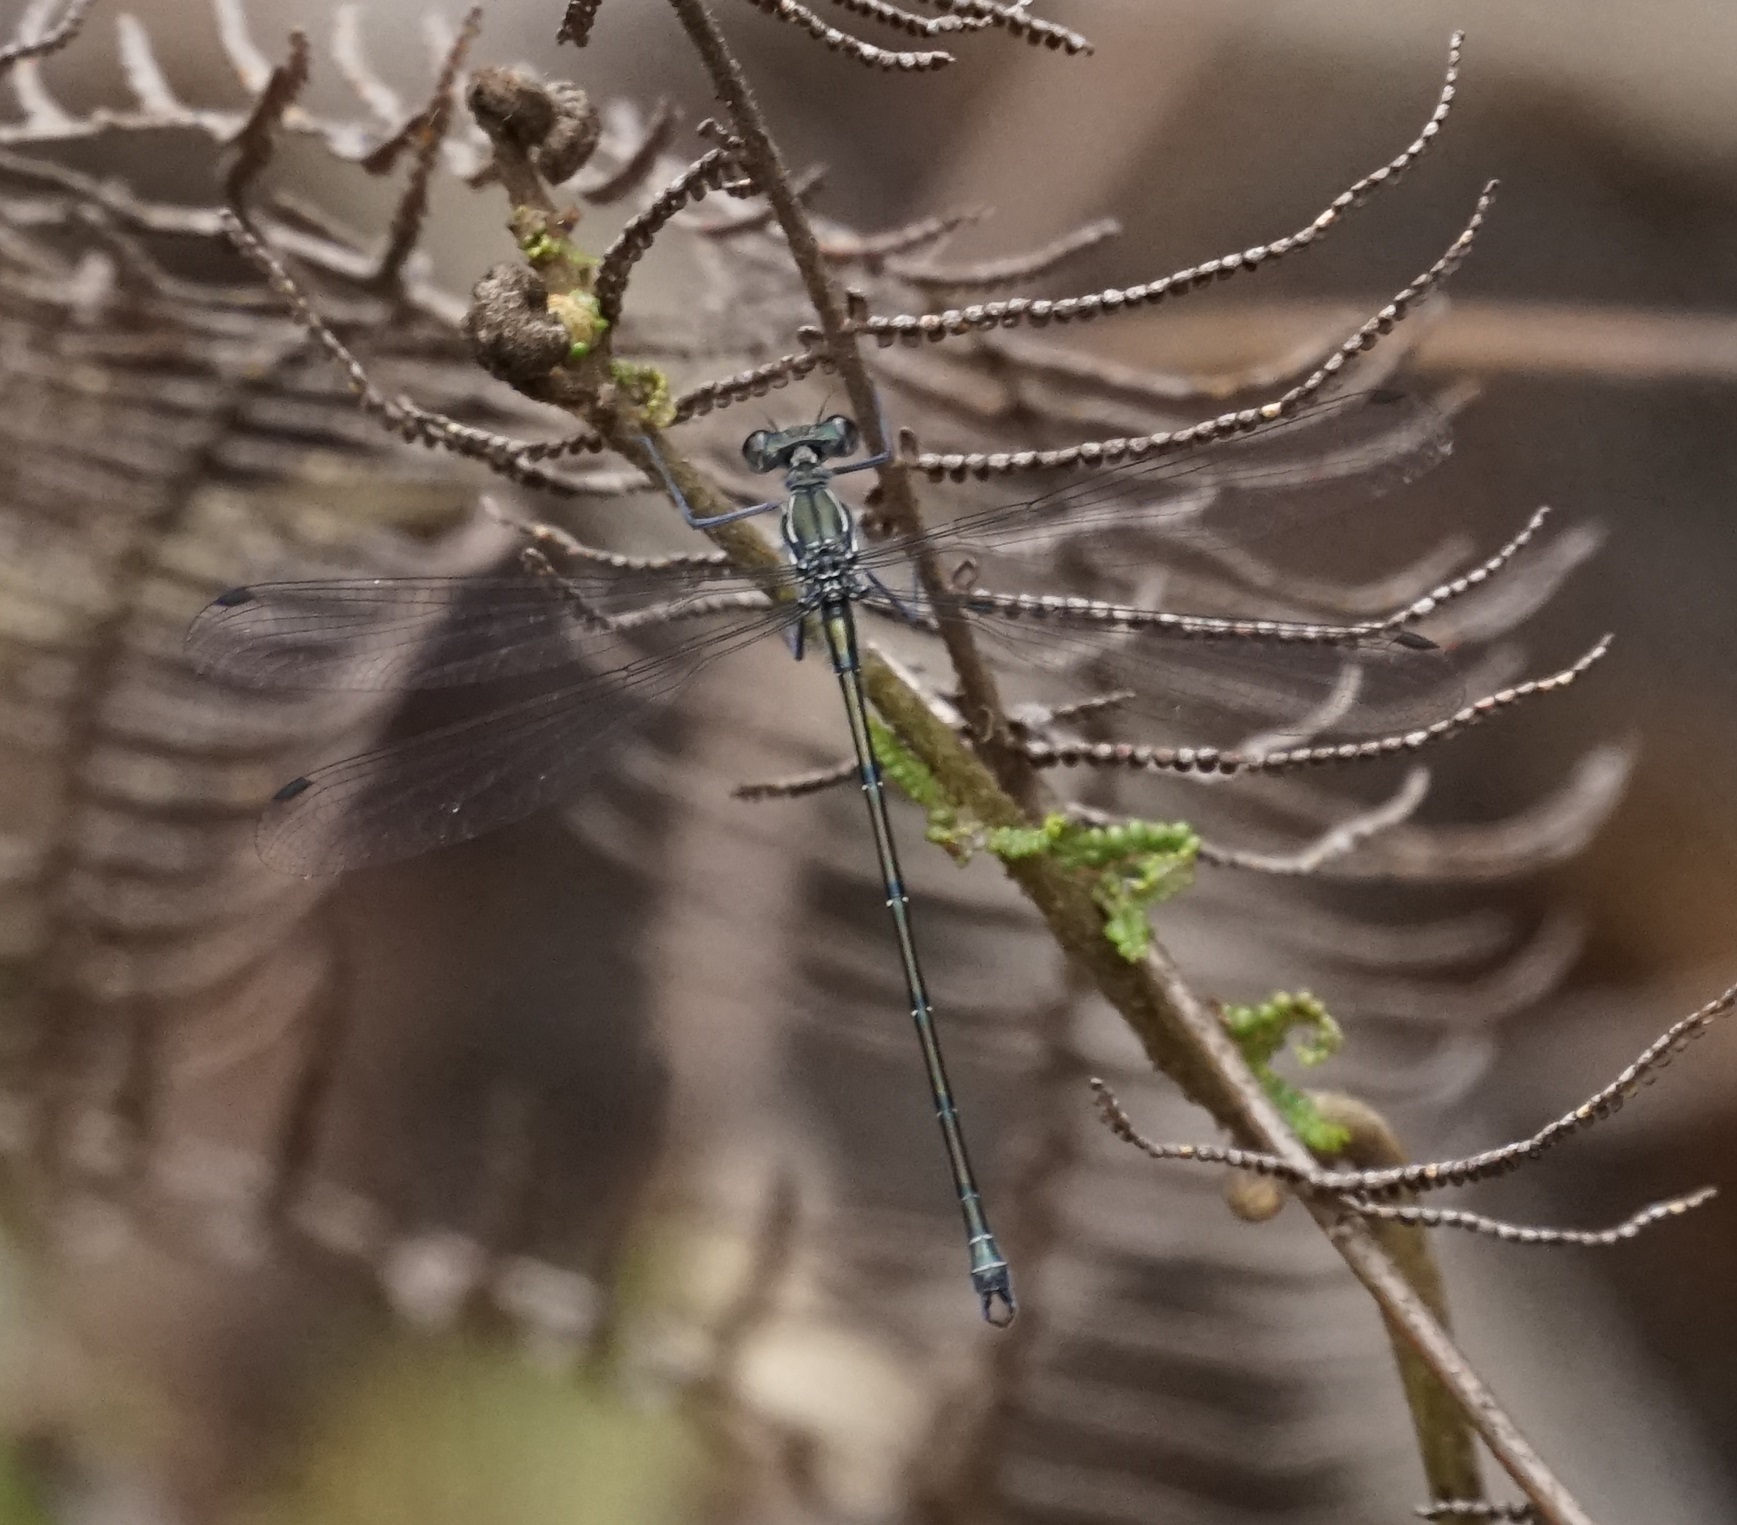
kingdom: Animalia
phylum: Arthropoda
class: Insecta
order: Odonata
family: Argiolestidae
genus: Austroargiolestes
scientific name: Austroargiolestes icteromelas
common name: Common flatwing
